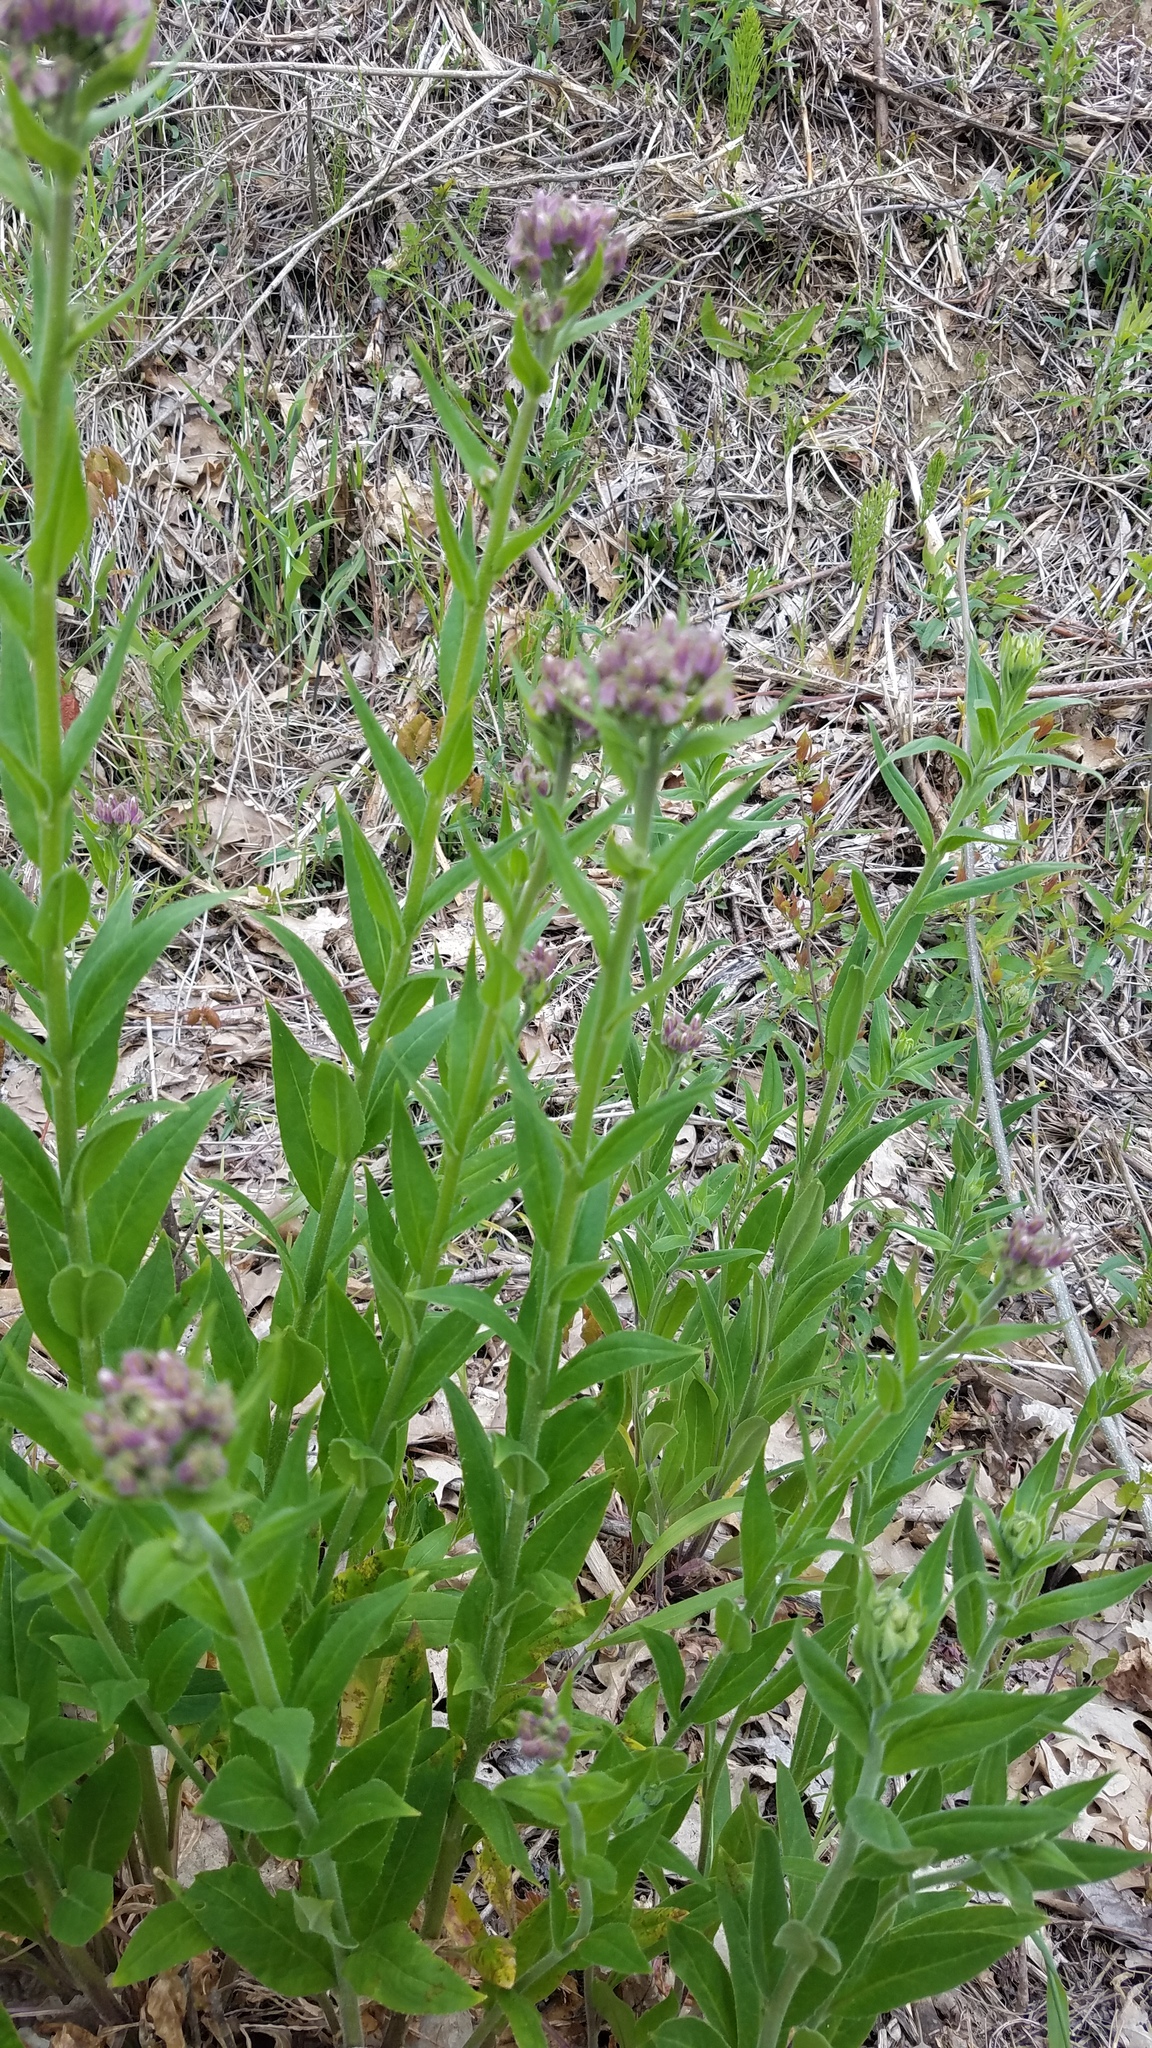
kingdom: Plantae
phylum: Tracheophyta
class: Magnoliopsida
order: Brassicales
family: Brassicaceae
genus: Hesperis
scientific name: Hesperis matronalis
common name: Dame's-violet
